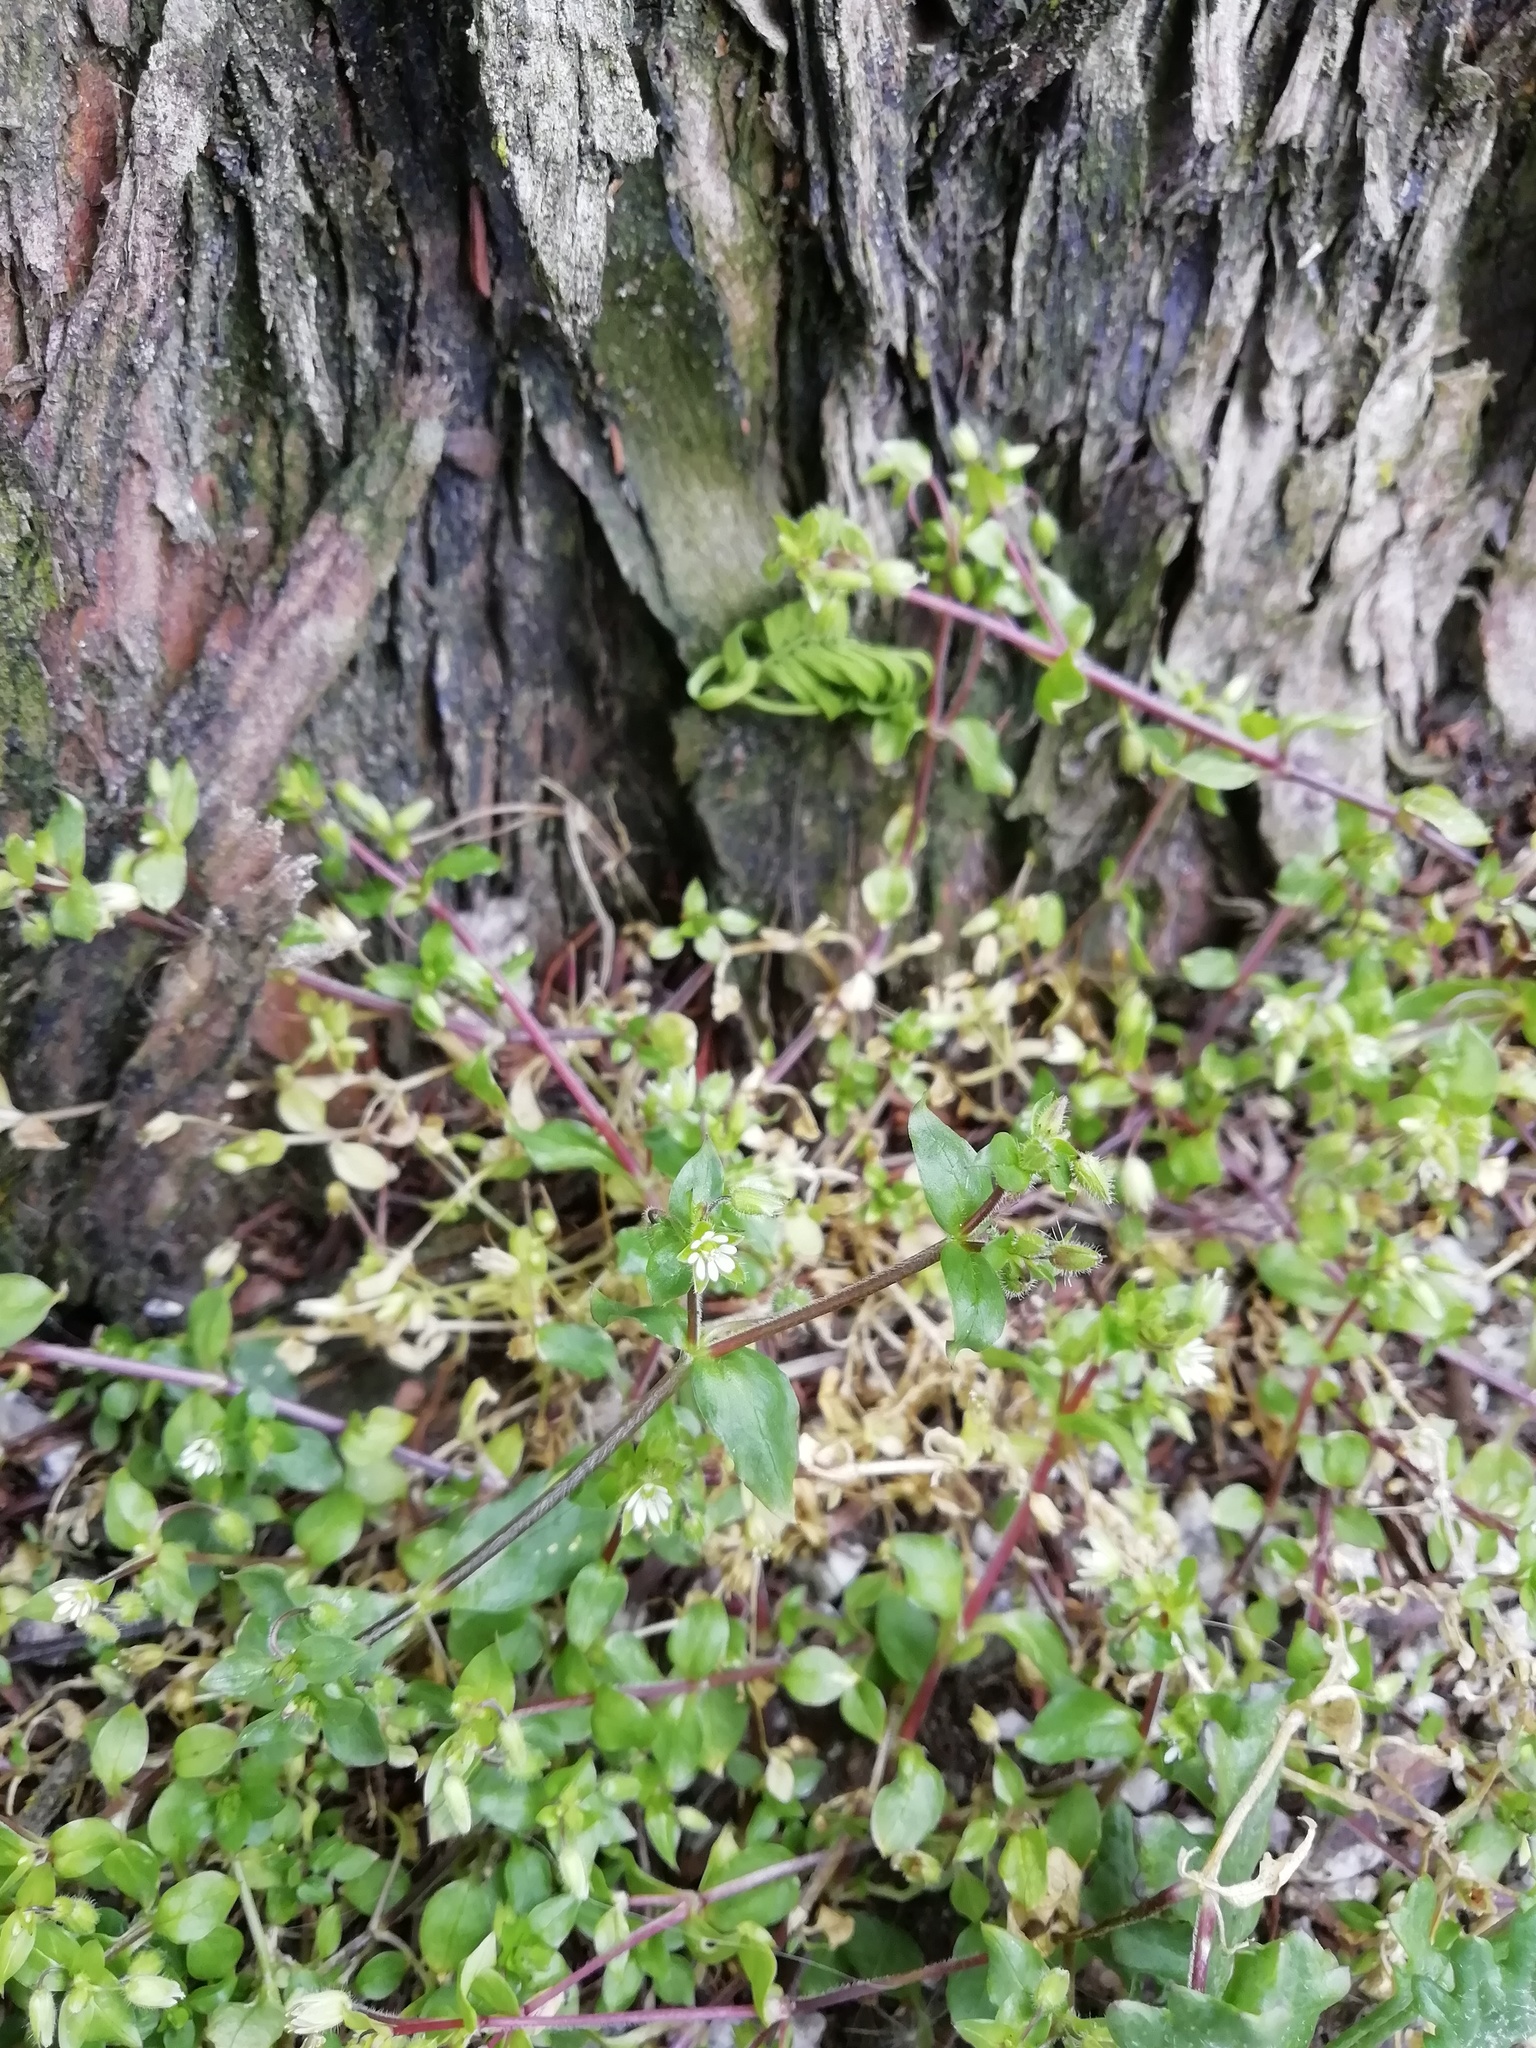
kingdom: Plantae
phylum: Tracheophyta
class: Magnoliopsida
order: Caryophyllales
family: Caryophyllaceae
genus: Stellaria
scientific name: Stellaria media
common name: Common chickweed
